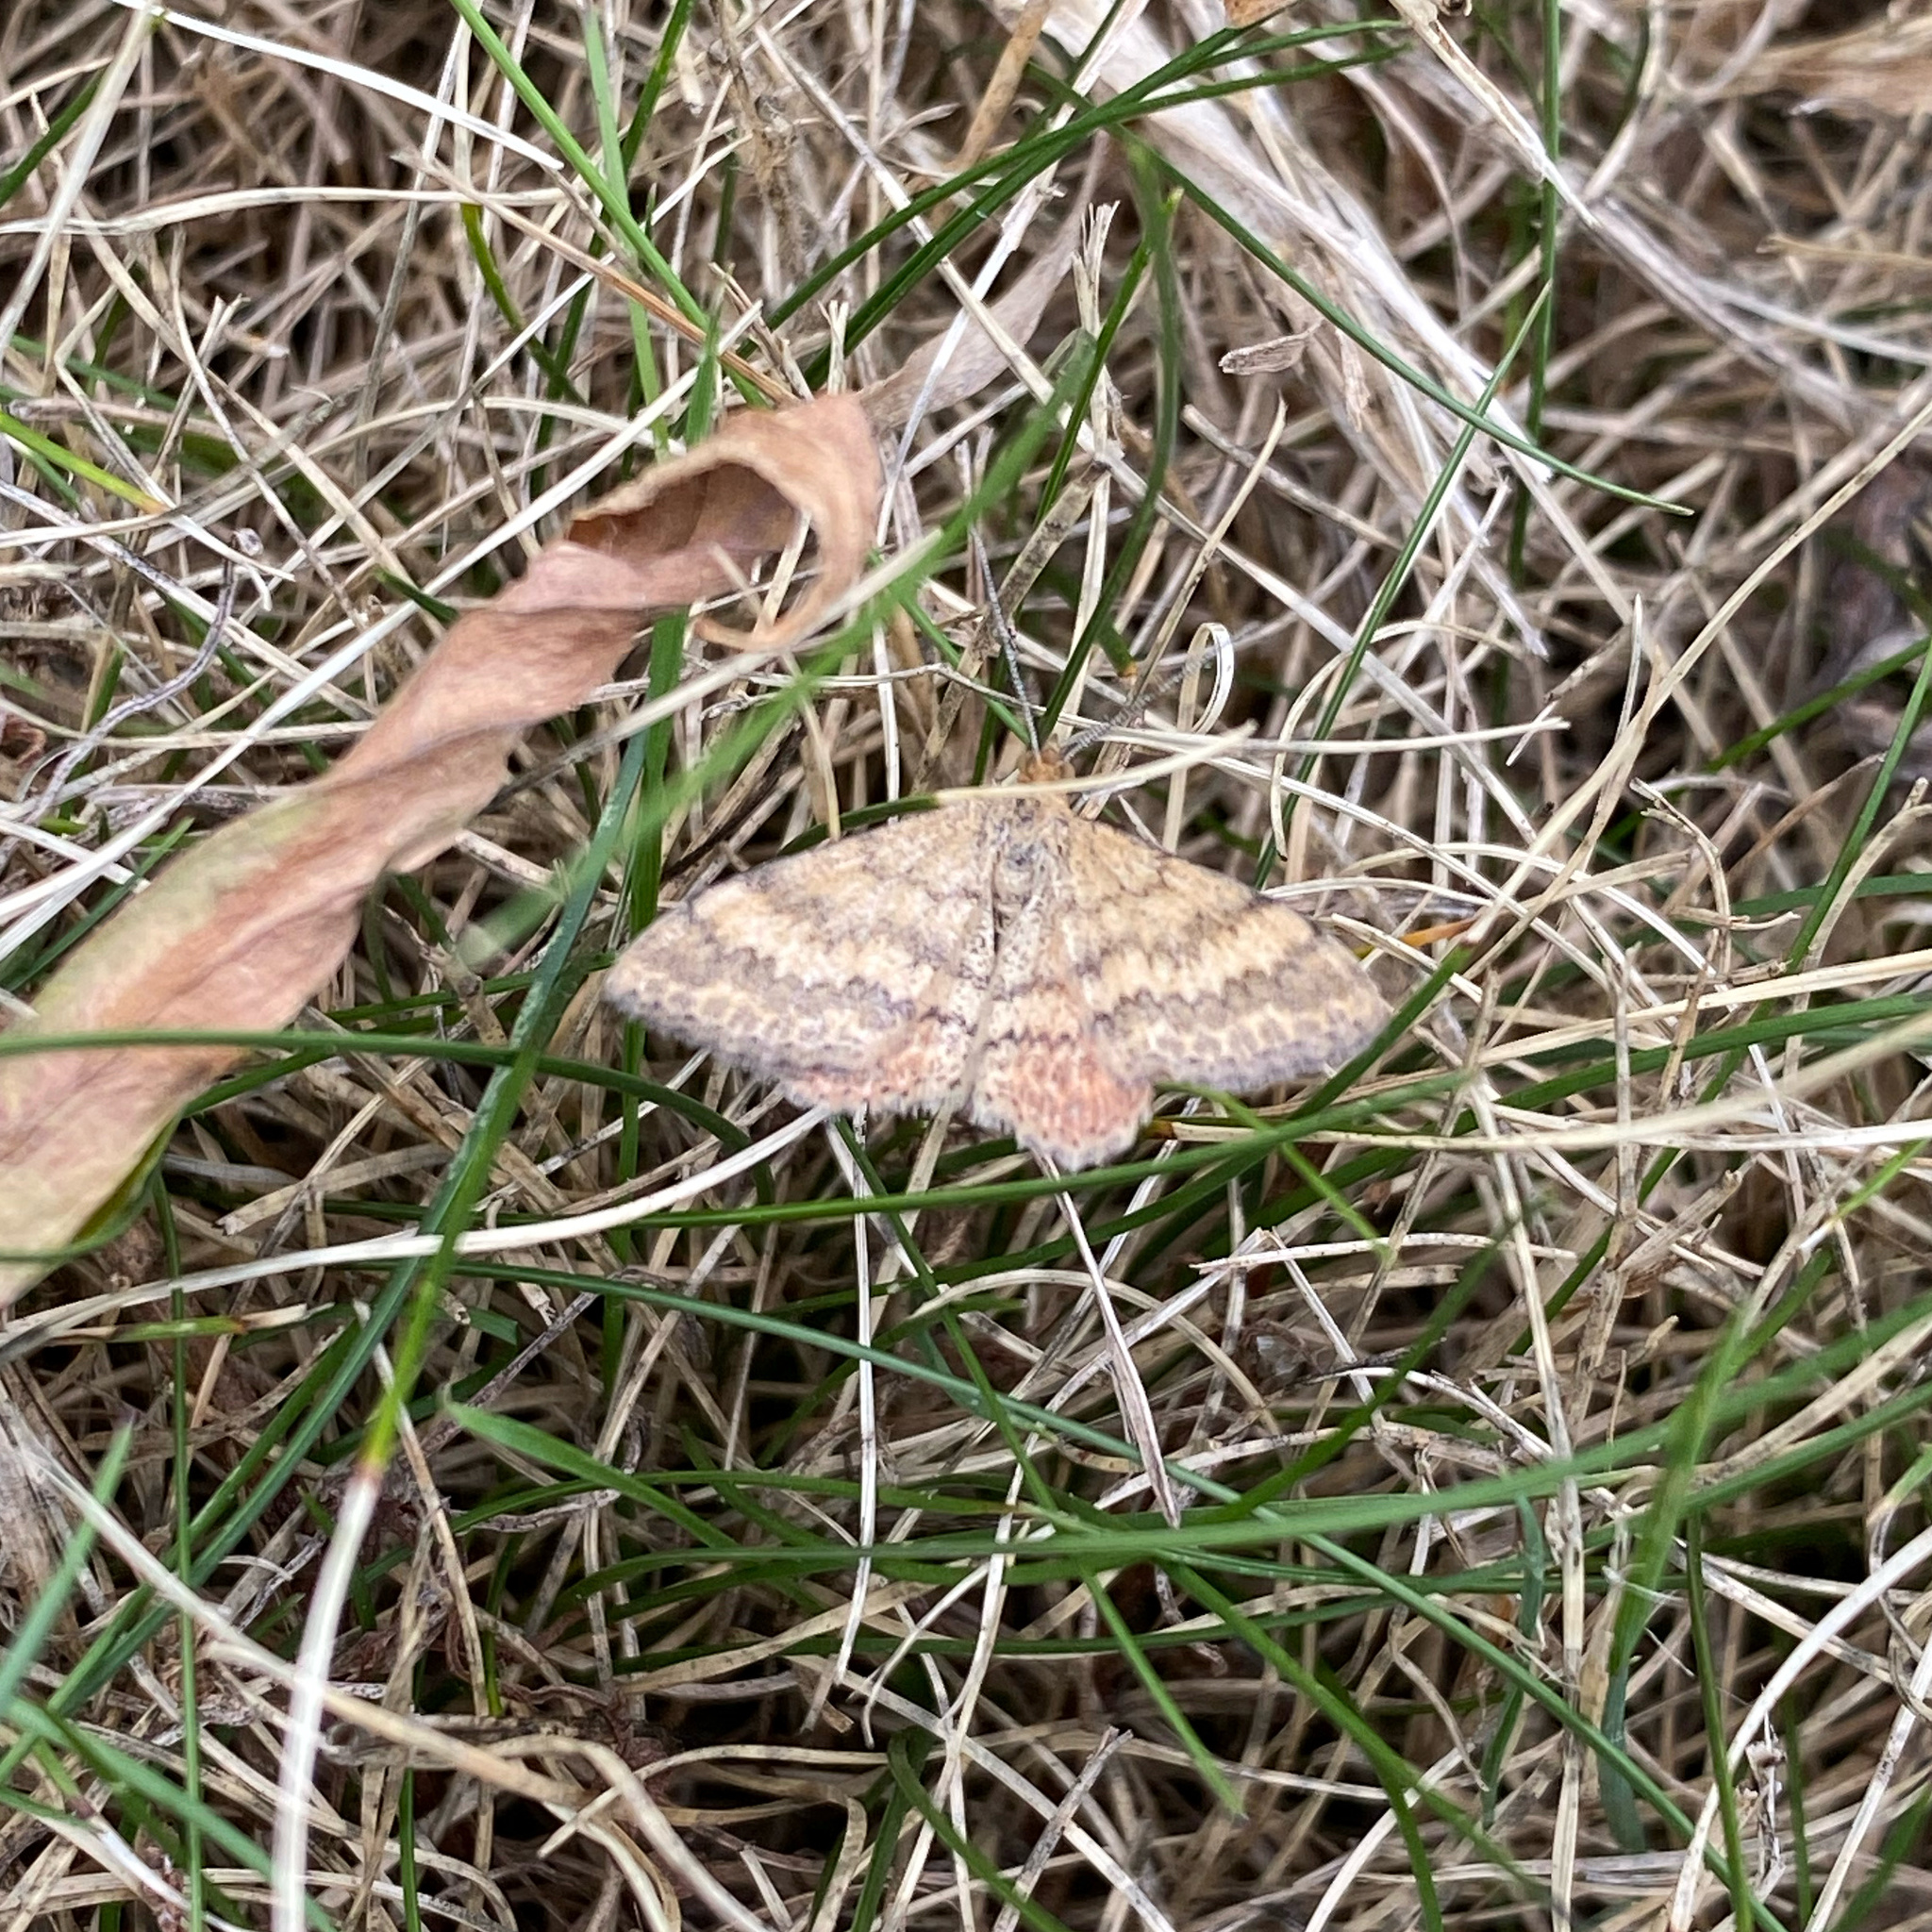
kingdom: Animalia
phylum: Arthropoda
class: Insecta
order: Lepidoptera
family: Geometridae
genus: Scopula
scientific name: Scopula rubraria
